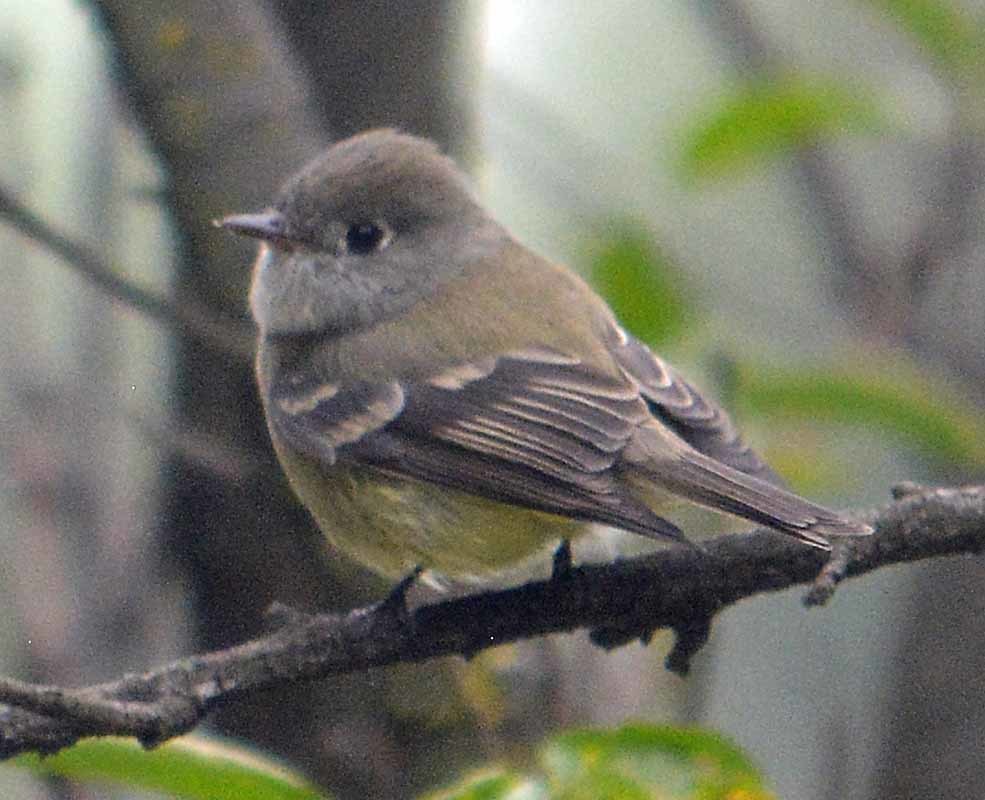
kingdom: Animalia
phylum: Chordata
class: Aves
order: Passeriformes
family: Tyrannidae
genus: Empidonax
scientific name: Empidonax hammondii
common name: Hammond's flycatcher
